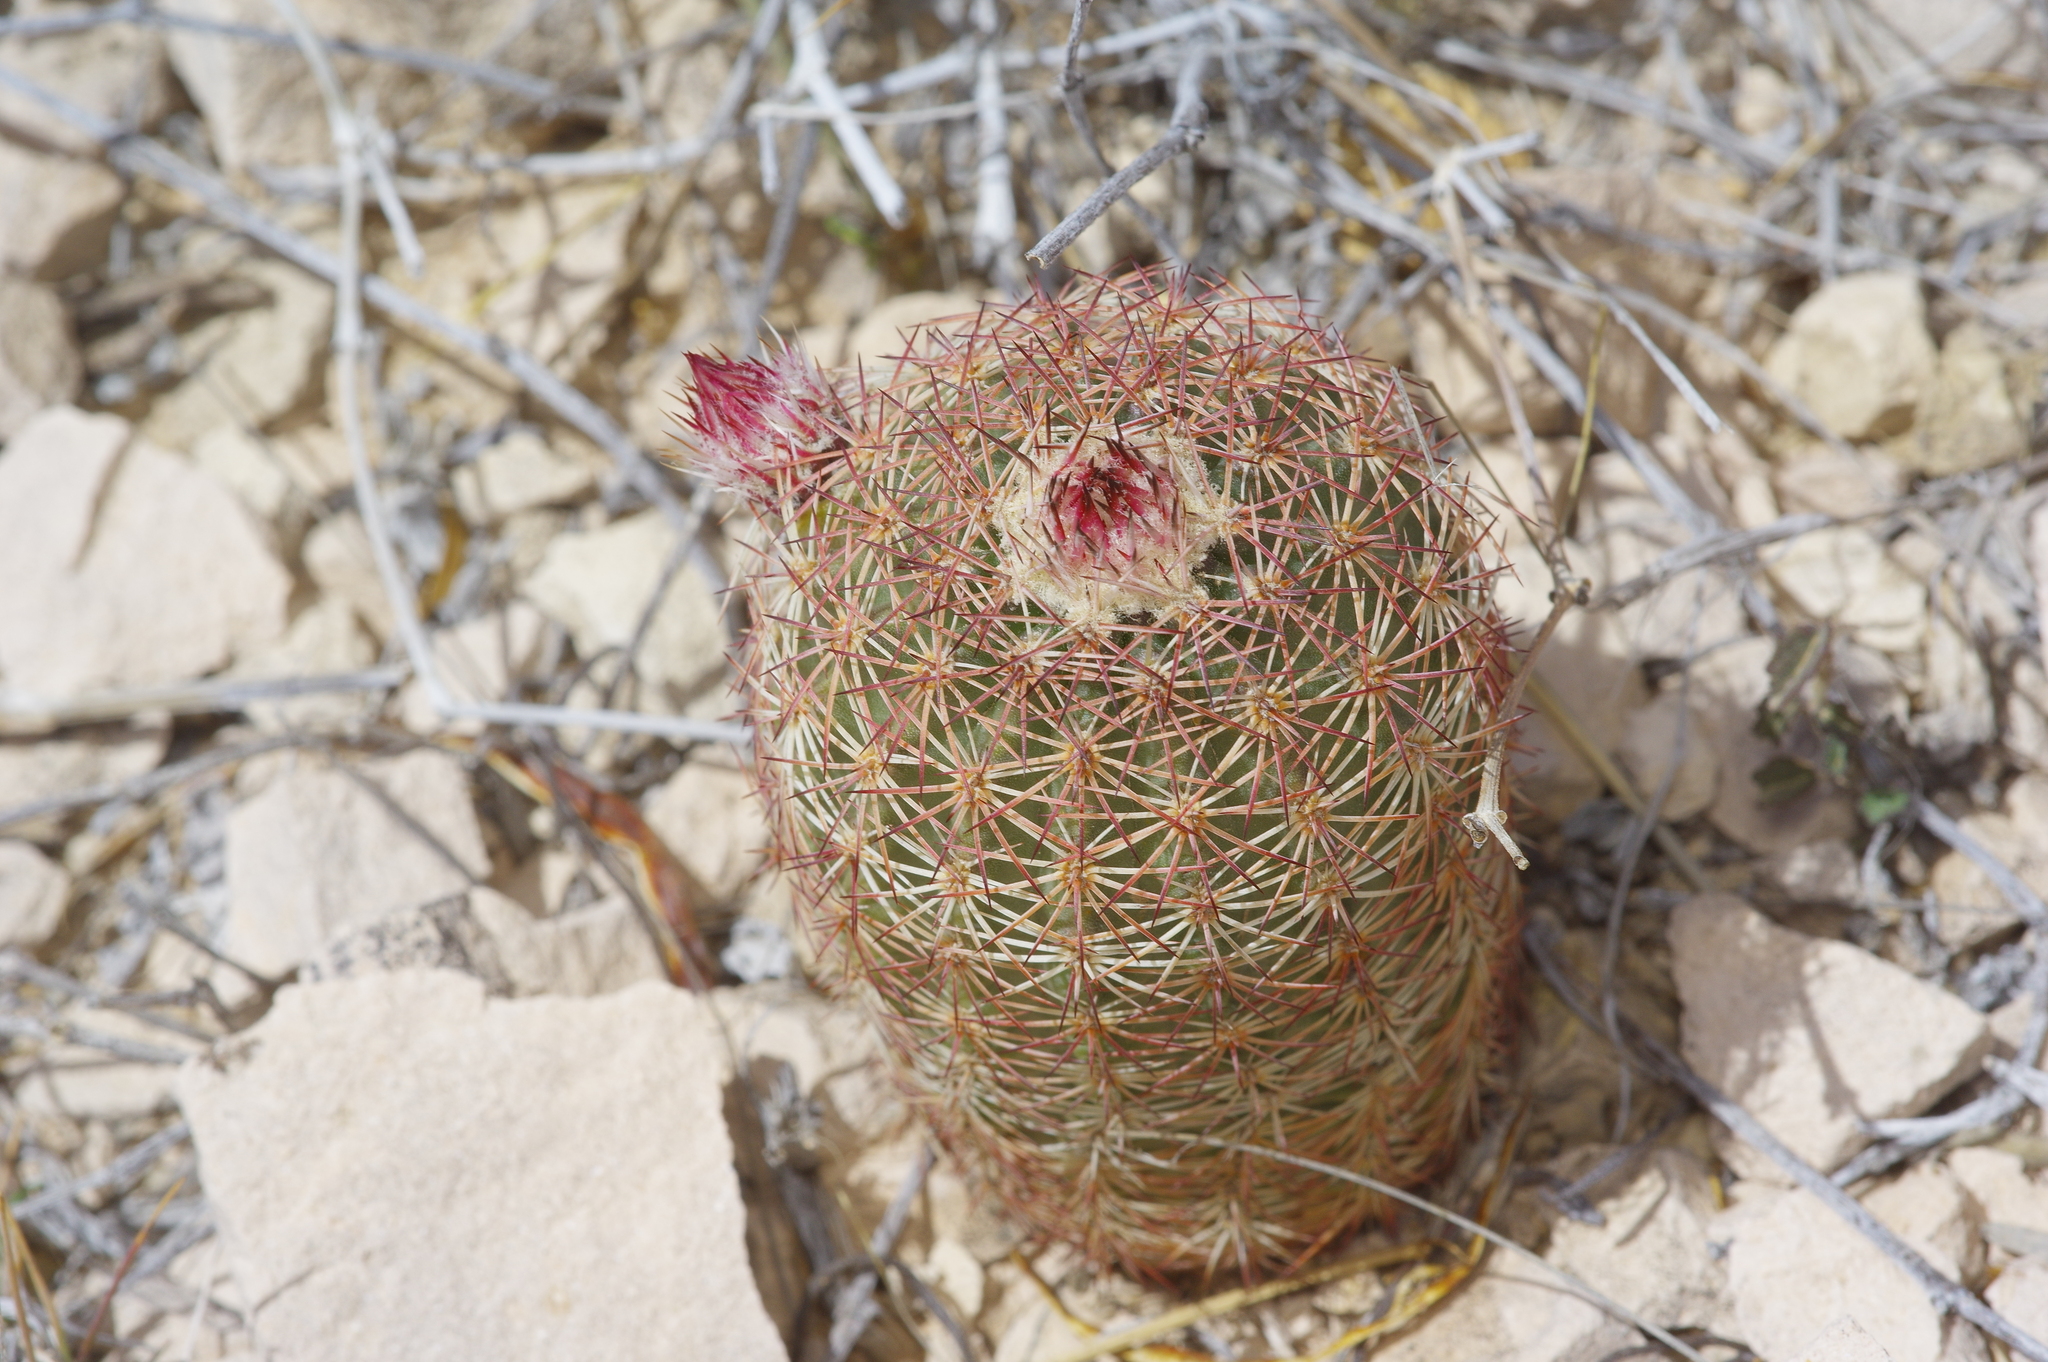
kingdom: Plantae
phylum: Tracheophyta
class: Magnoliopsida
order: Caryophyllales
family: Cactaceae
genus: Echinocereus
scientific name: Echinocereus
